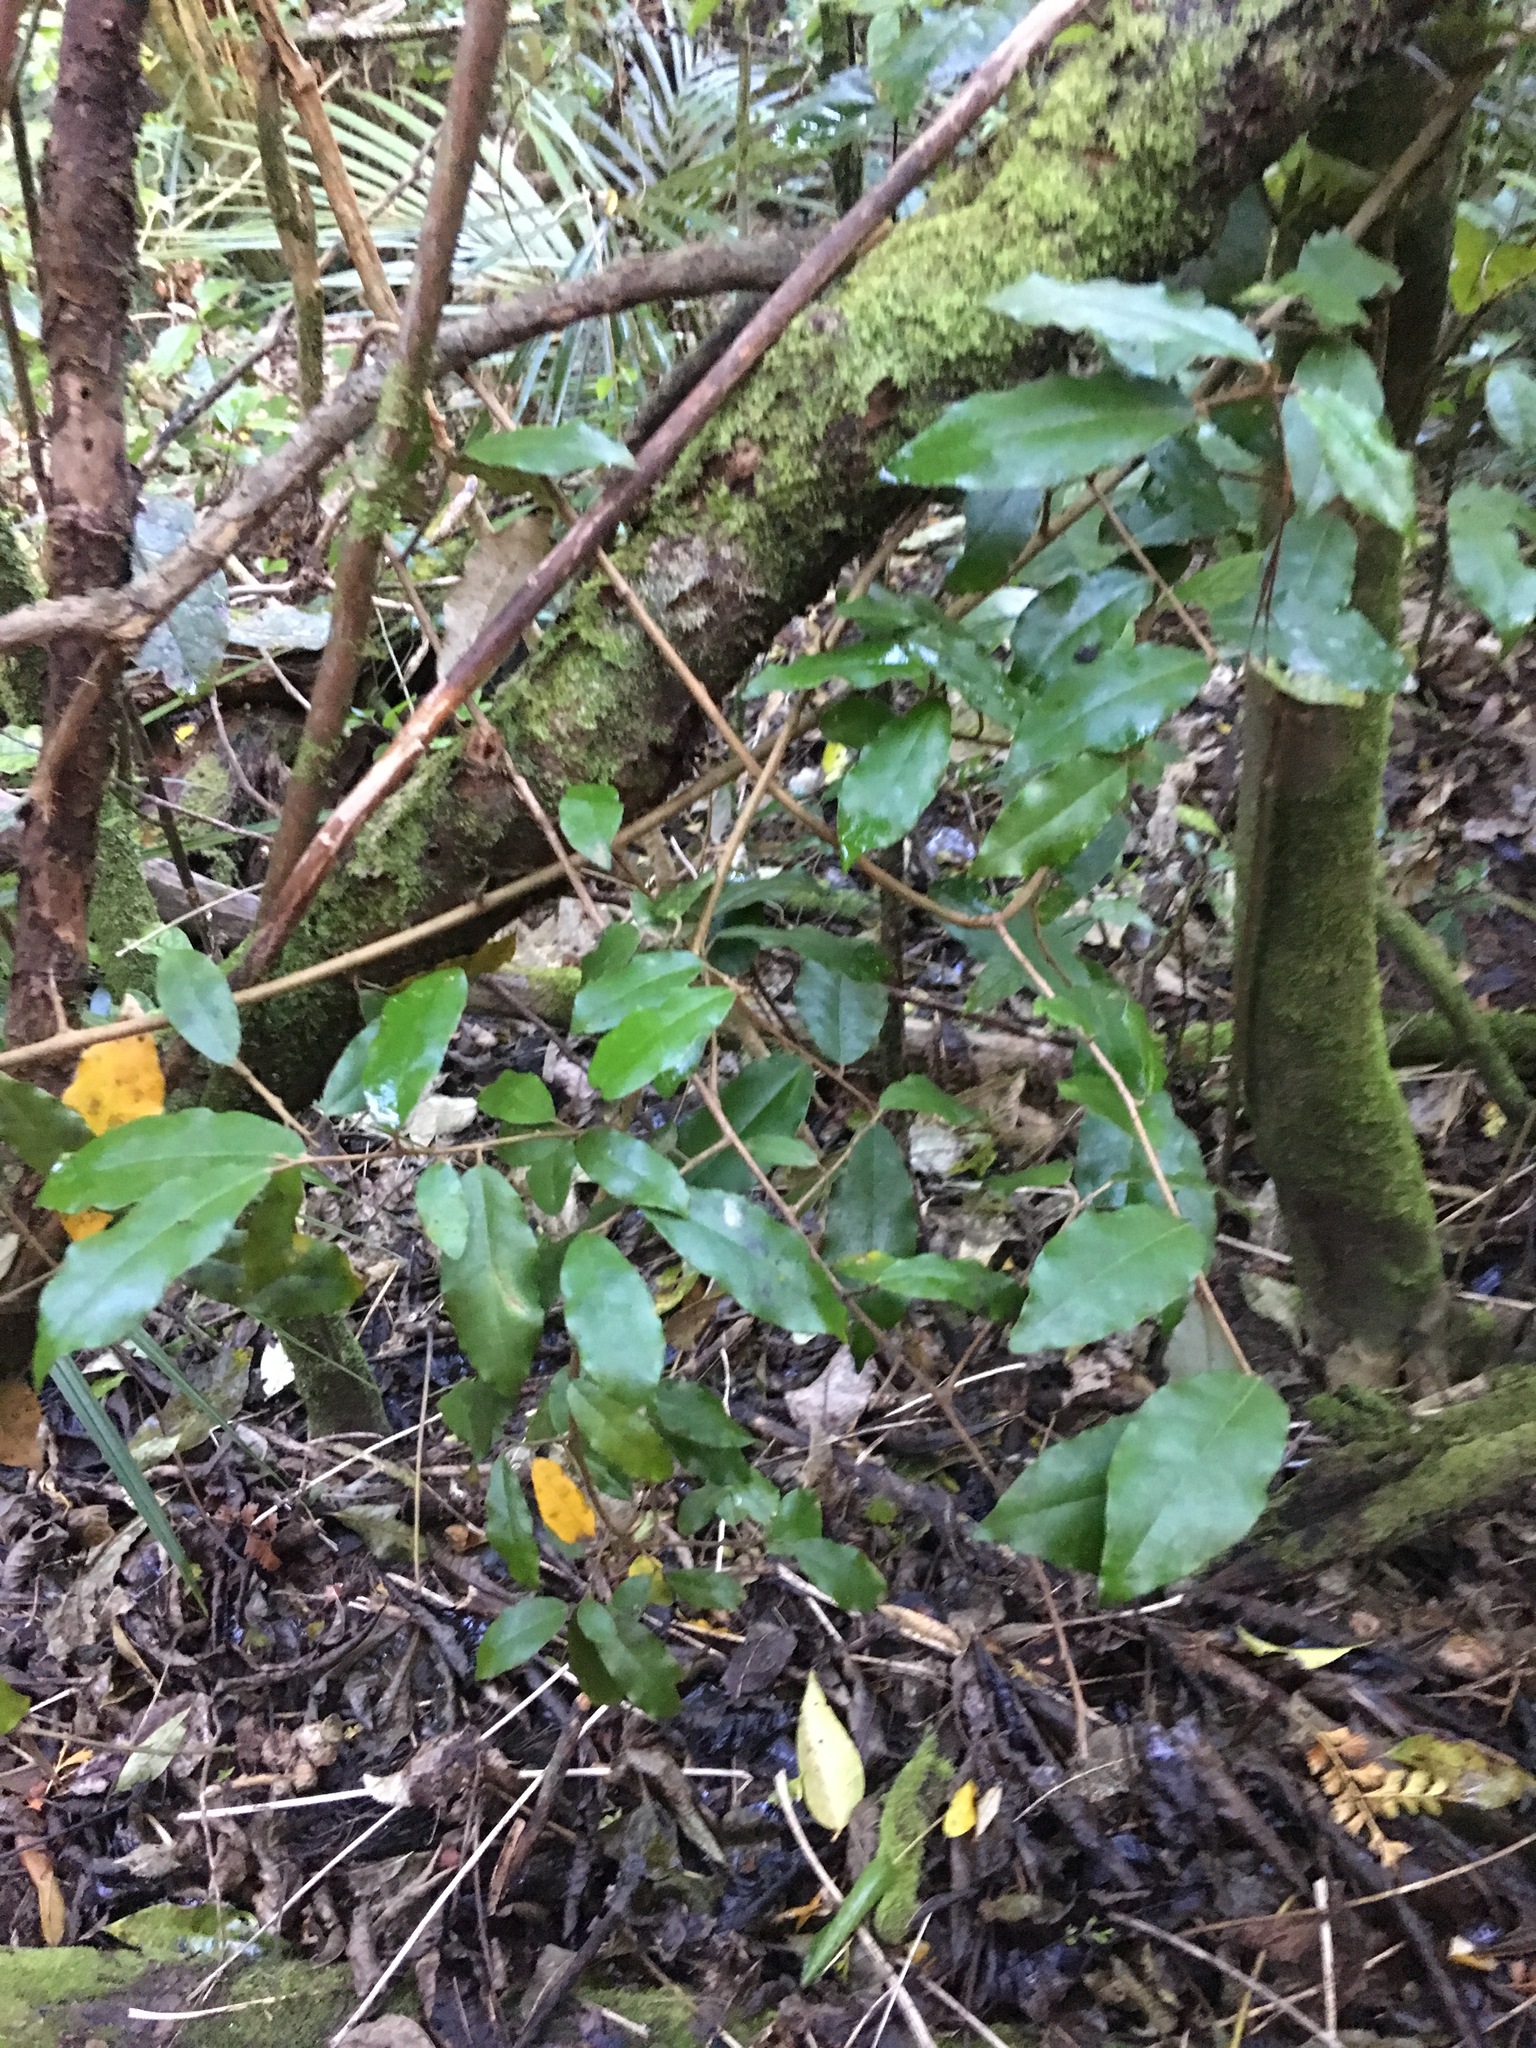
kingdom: Plantae
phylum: Tracheophyta
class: Magnoliopsida
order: Rosales
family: Elaeagnaceae
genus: Elaeagnus
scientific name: Elaeagnus reflexa
